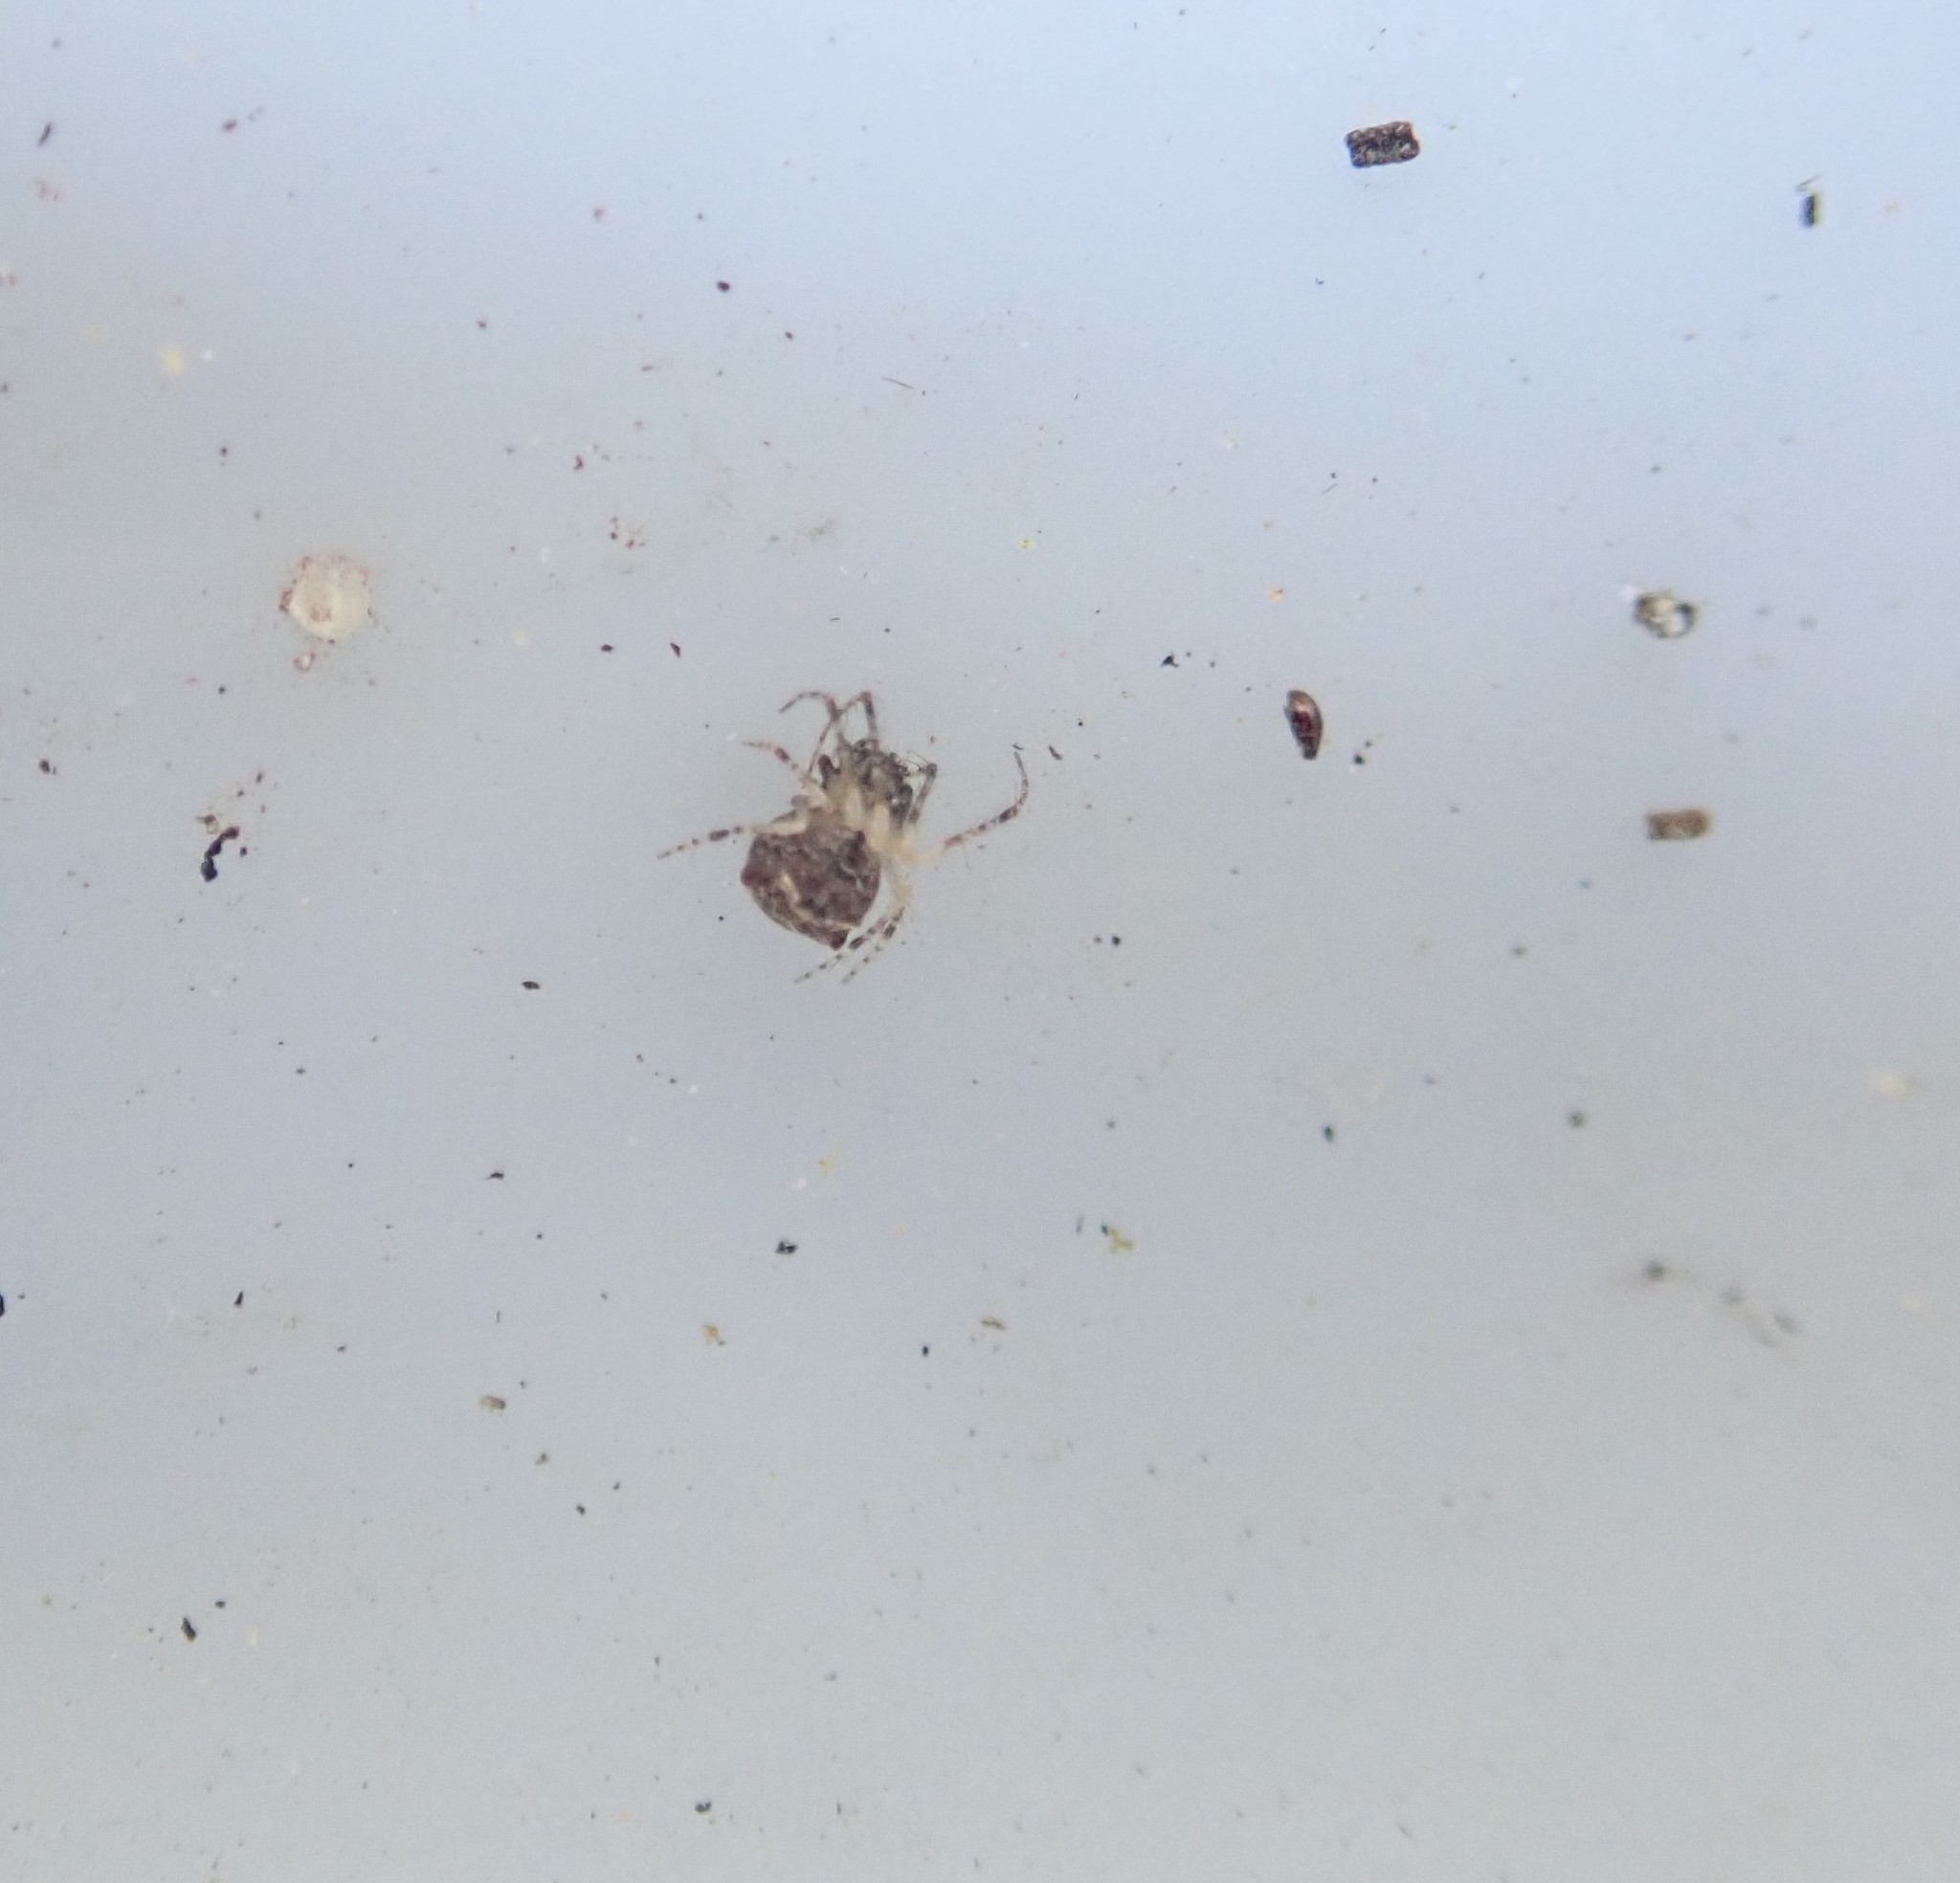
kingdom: Animalia
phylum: Arthropoda
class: Arachnida
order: Araneae
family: Mimetidae
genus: Ero
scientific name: Ero aphana
